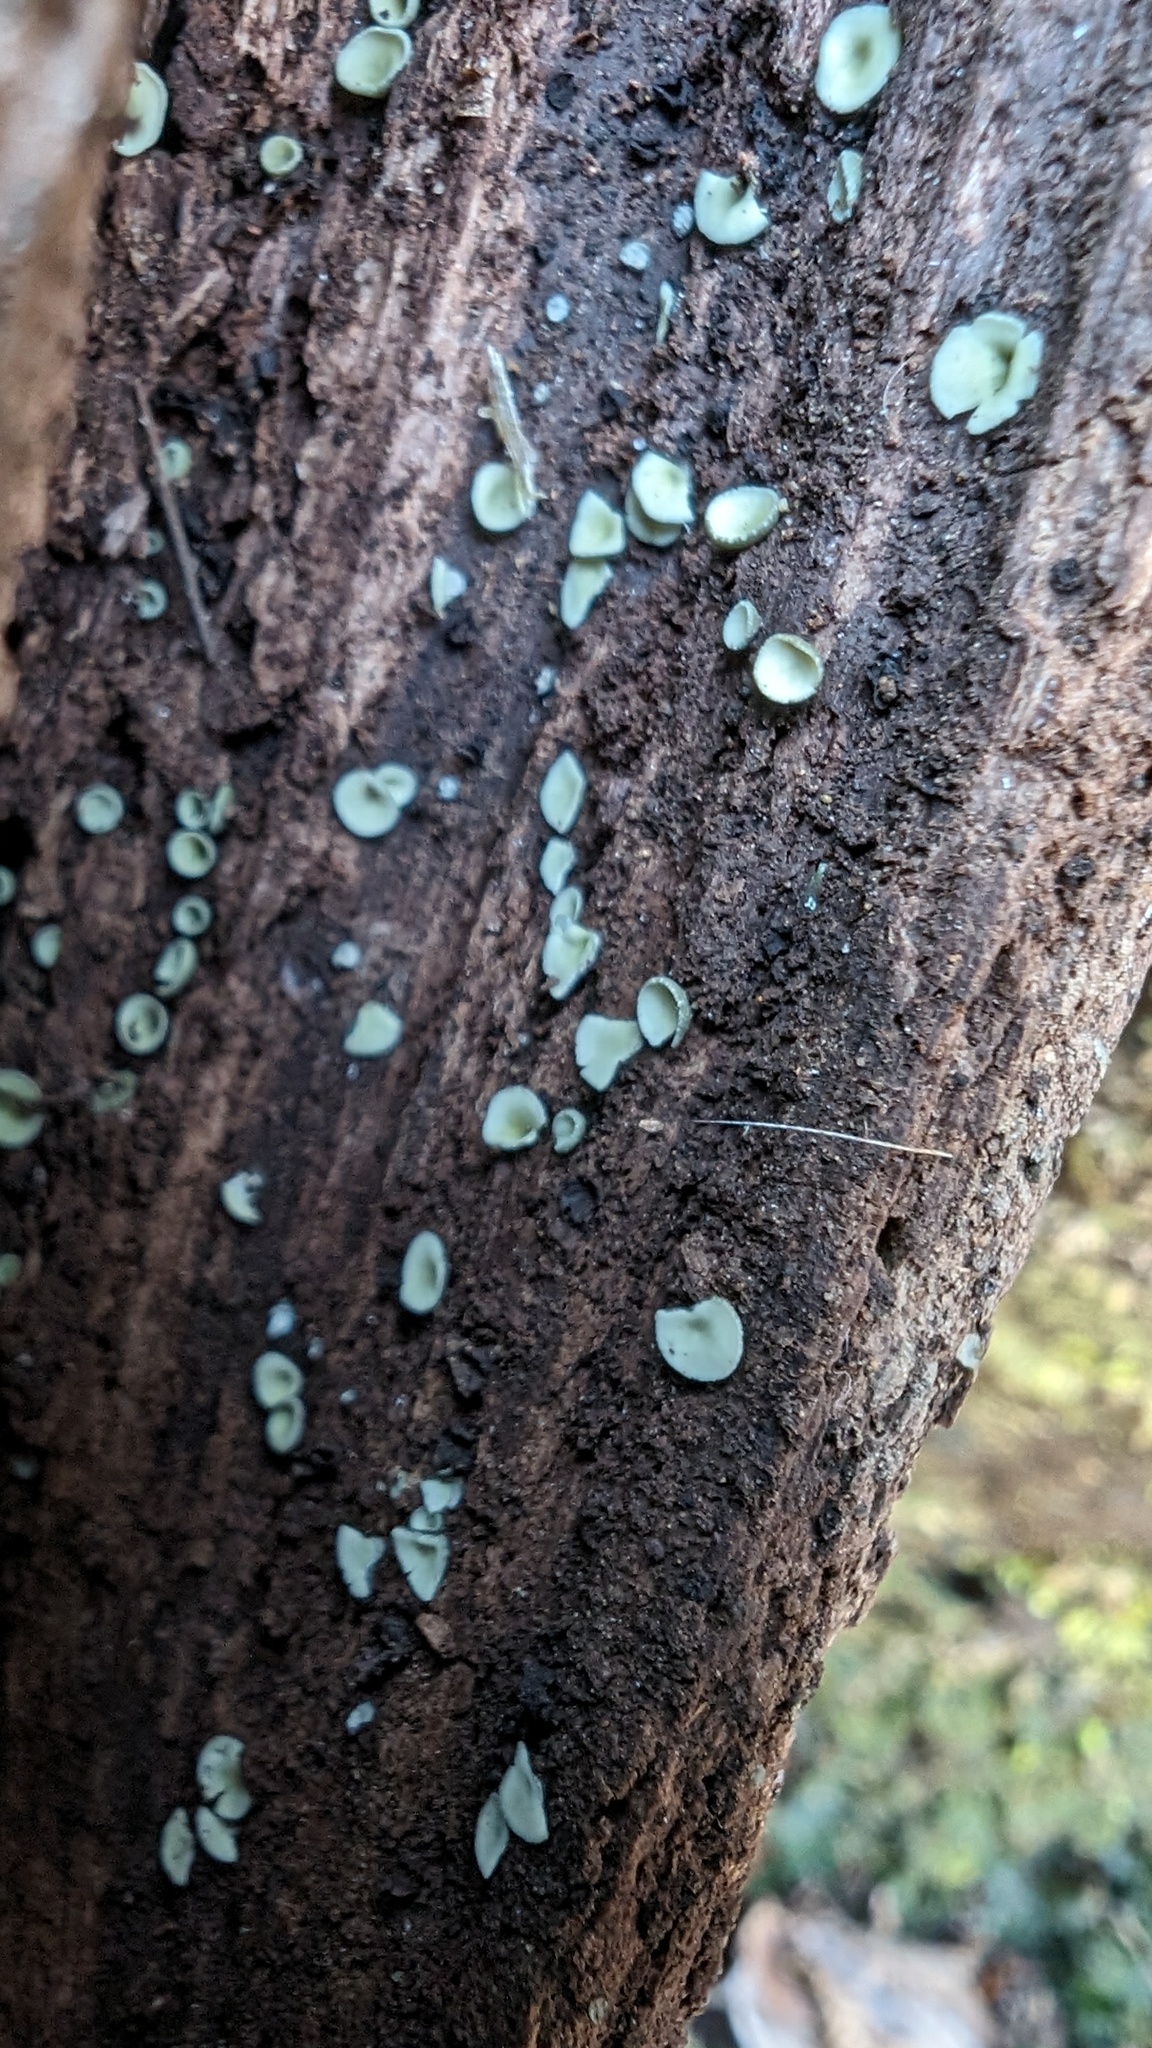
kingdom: Fungi
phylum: Ascomycota
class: Leotiomycetes
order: Helotiales
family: Chlorospleniaceae
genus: Chlorosplenium
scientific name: Chlorosplenium chlora
